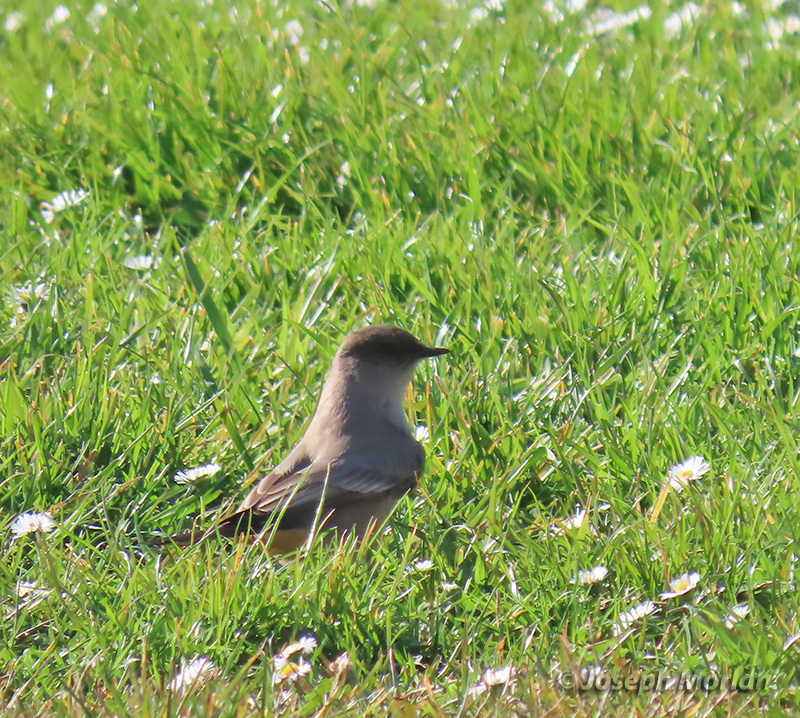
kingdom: Animalia
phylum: Chordata
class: Aves
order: Passeriformes
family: Tyrannidae
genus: Sayornis
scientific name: Sayornis saya
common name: Say's phoebe
